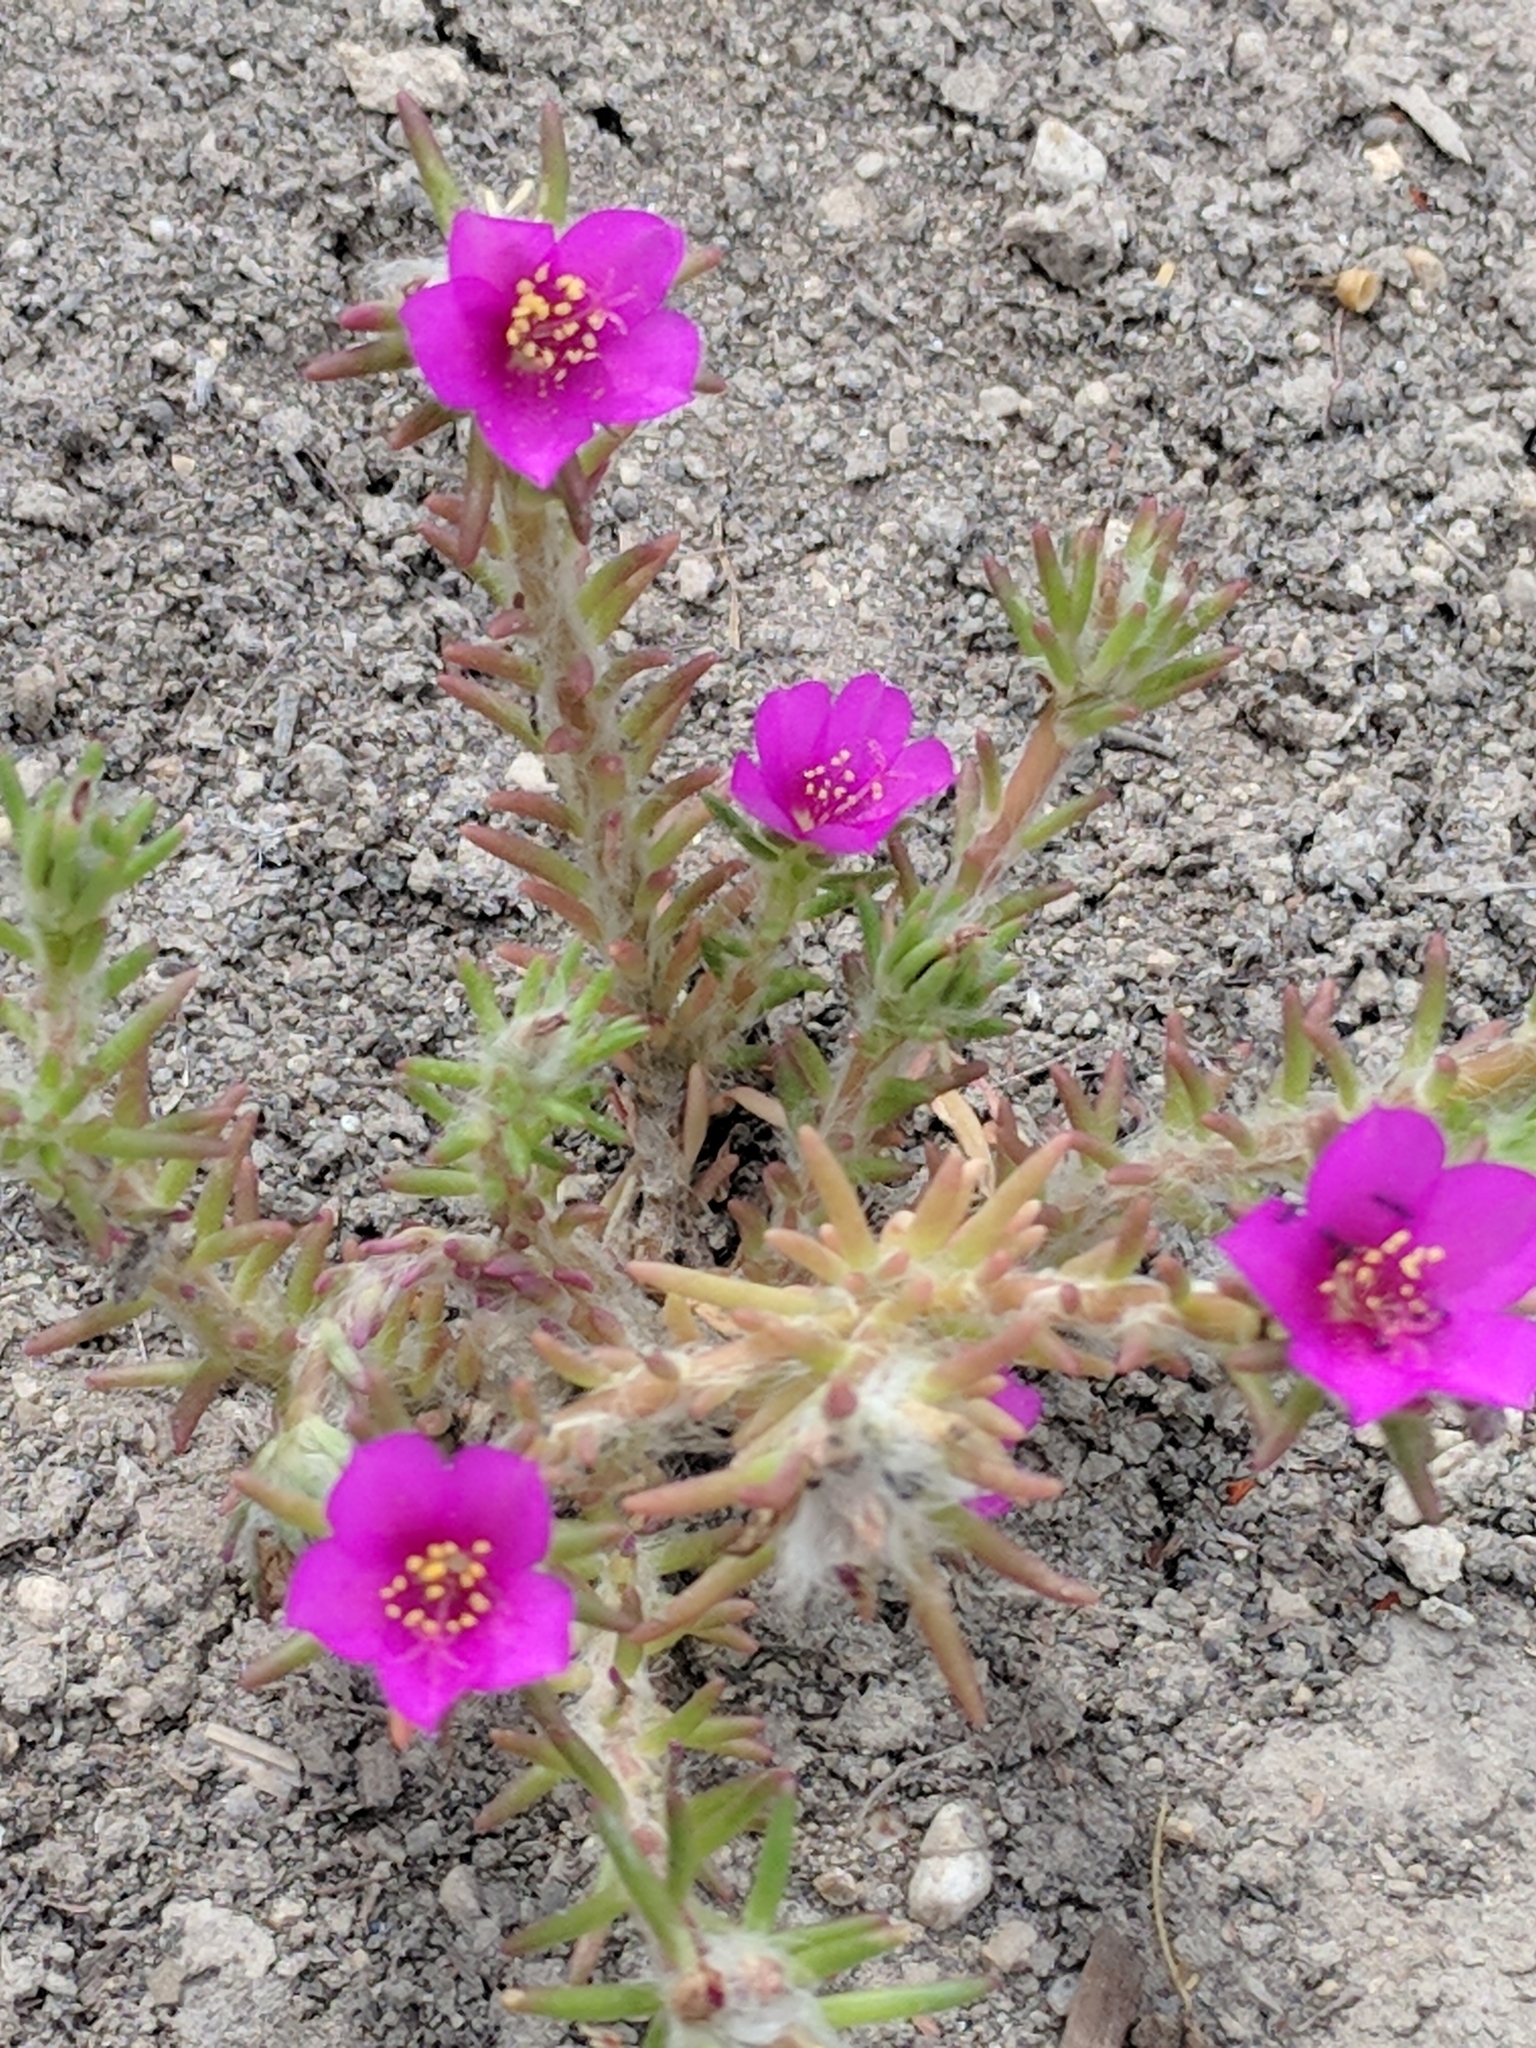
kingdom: Plantae
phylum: Tracheophyta
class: Magnoliopsida
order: Caryophyllales
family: Portulacaceae
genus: Portulaca
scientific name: Portulaca pilosa
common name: Kiss me quick
